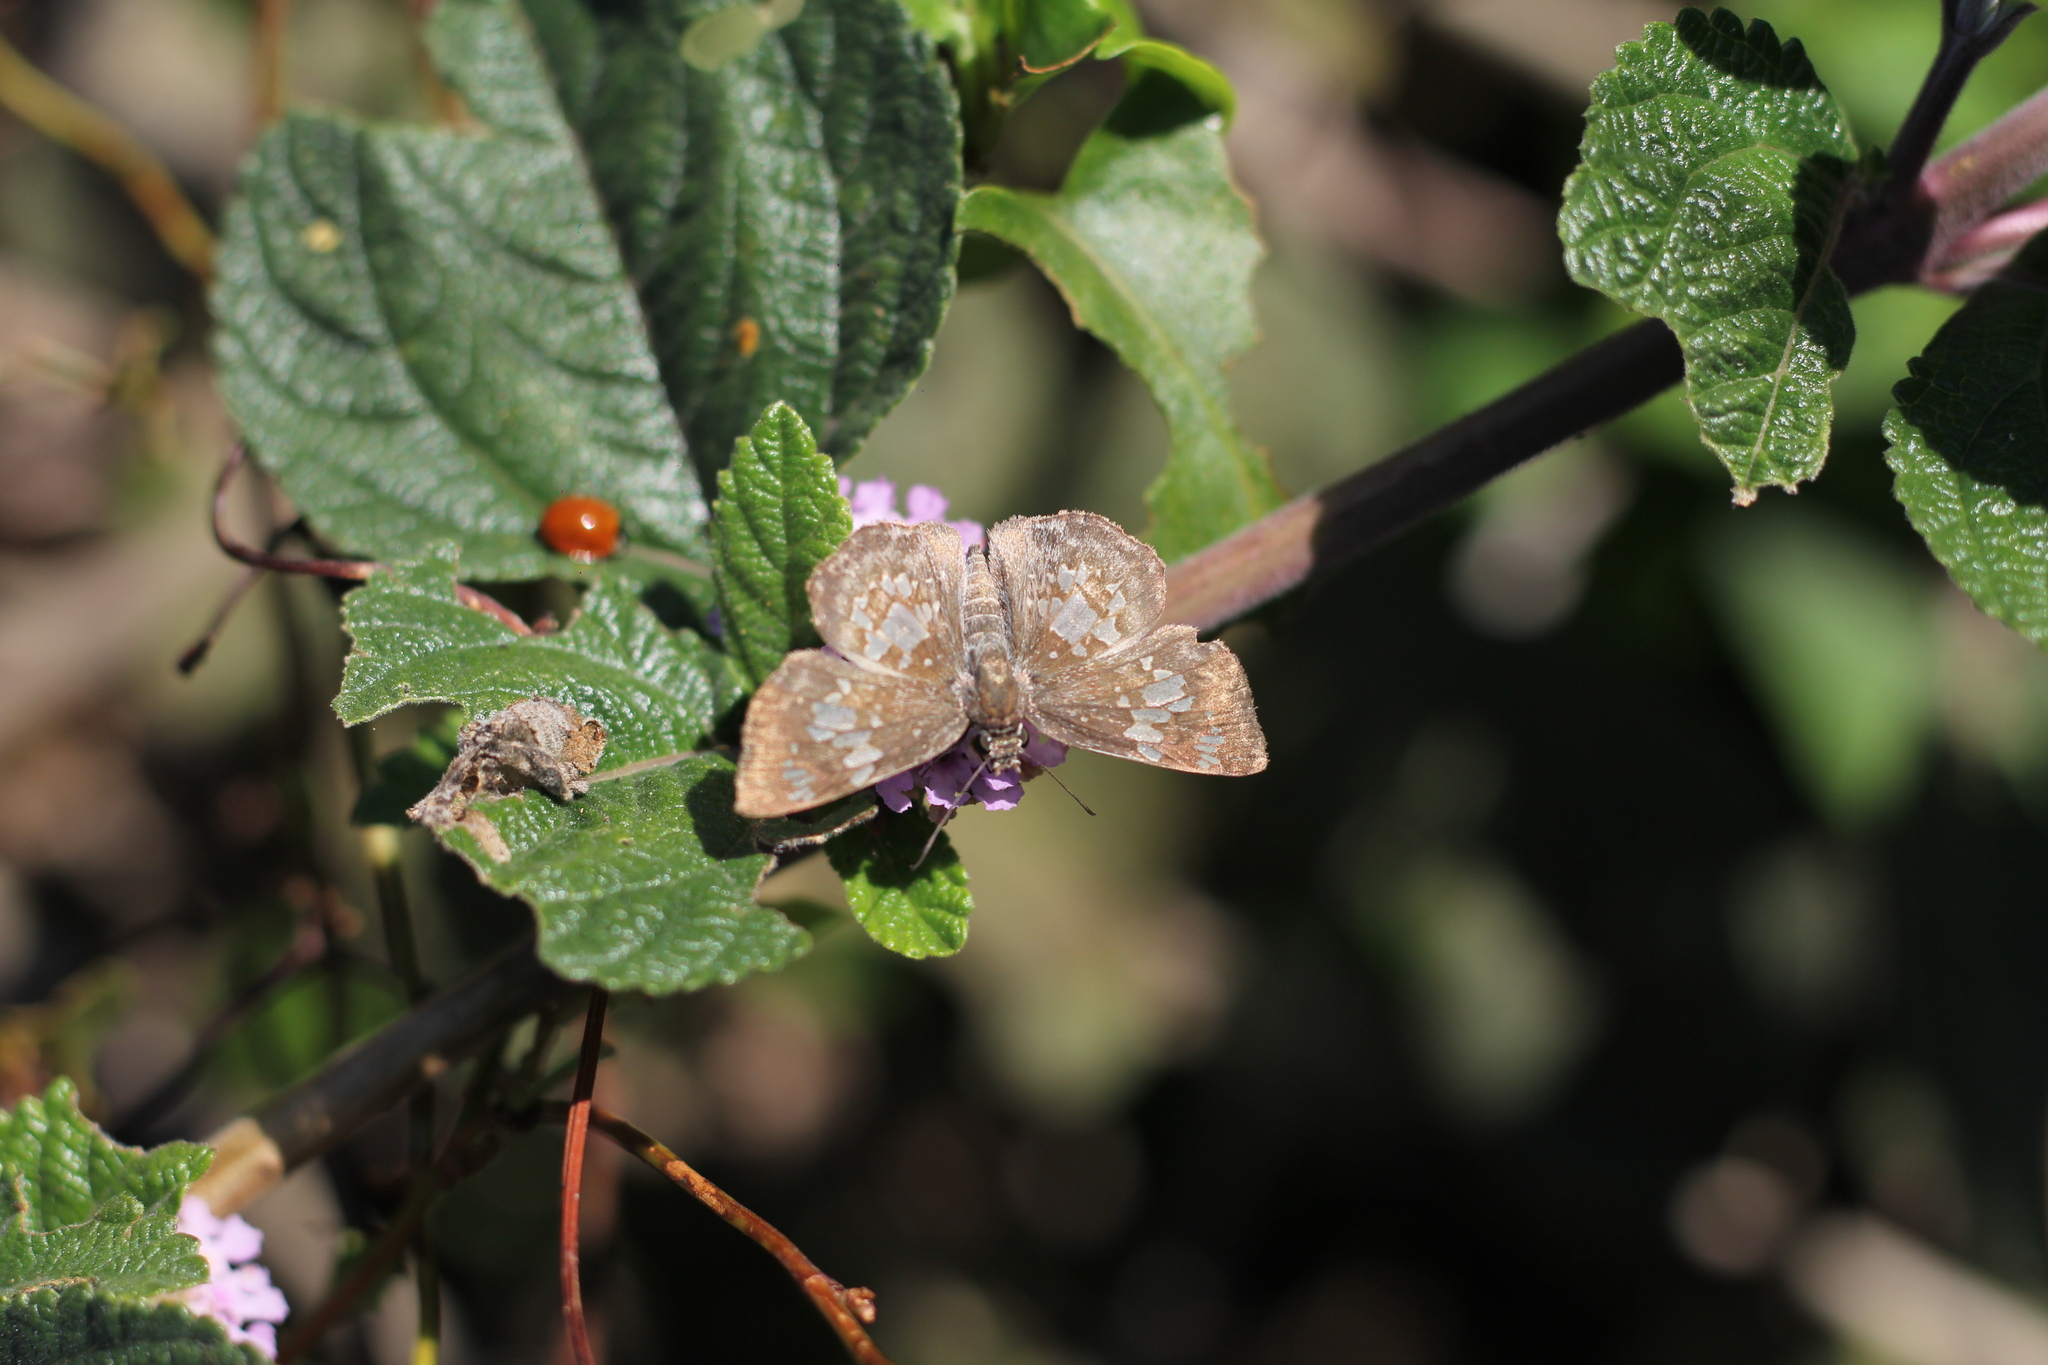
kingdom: Animalia
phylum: Arthropoda
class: Insecta
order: Lepidoptera
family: Hesperiidae
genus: Xenophanes
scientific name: Xenophanes tryxus
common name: Glassy-winged skipper
